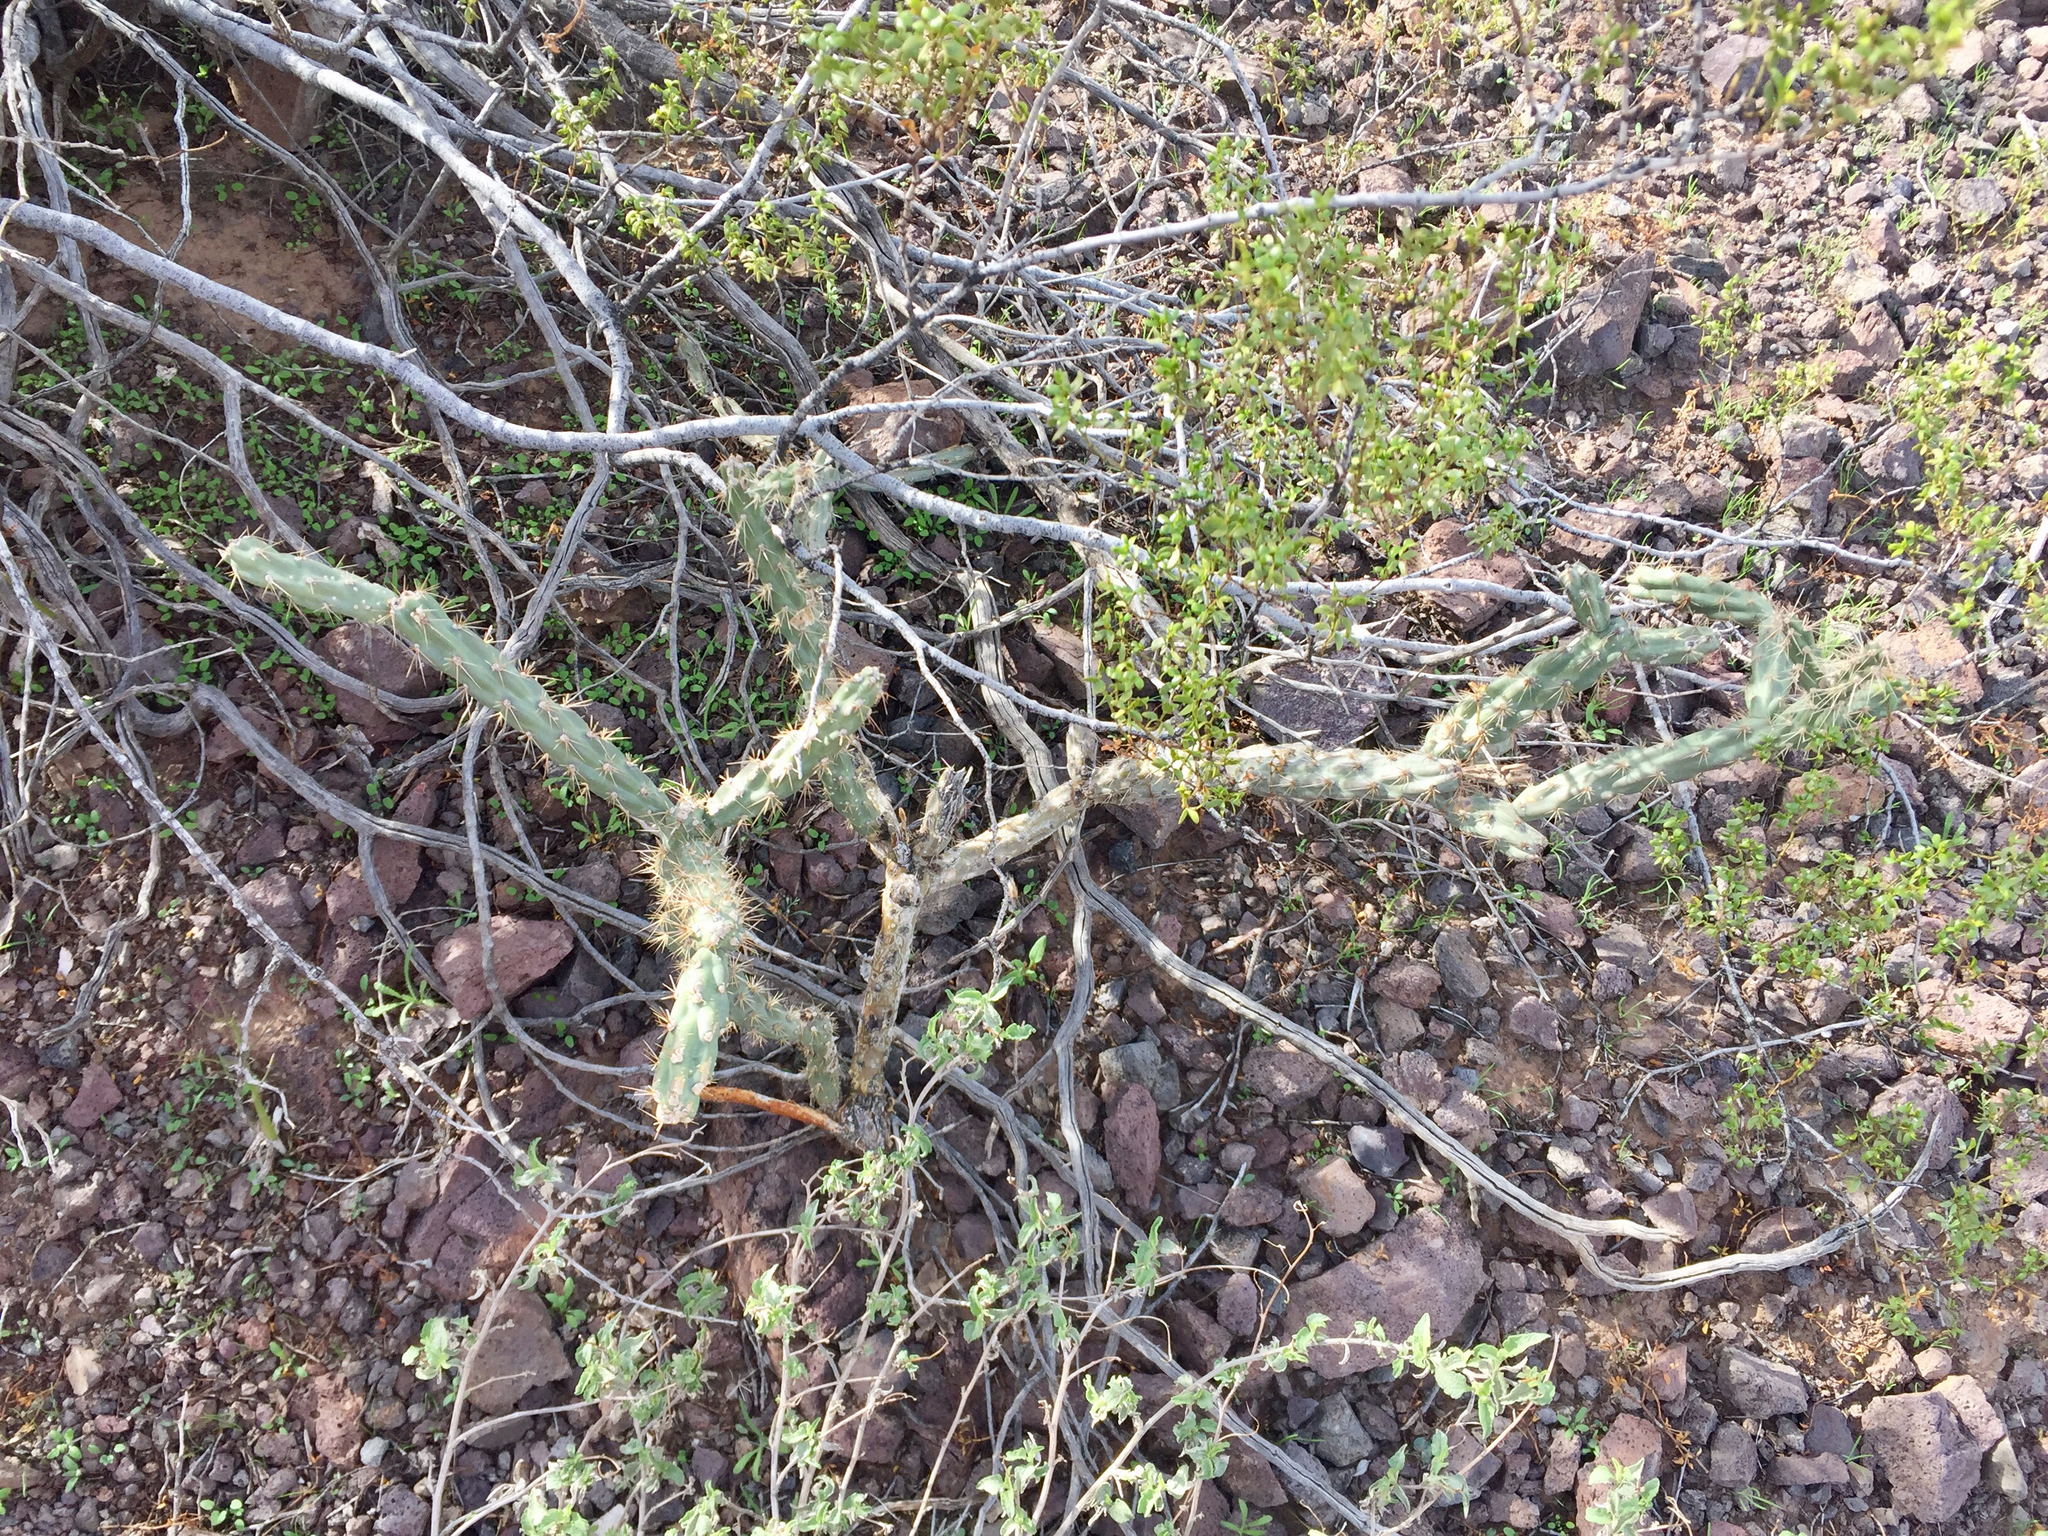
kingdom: Plantae
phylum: Tracheophyta
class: Magnoliopsida
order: Caryophyllales
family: Cactaceae
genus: Cylindropuntia
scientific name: Cylindropuntia acanthocarpa
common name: Buckhorn cholla
